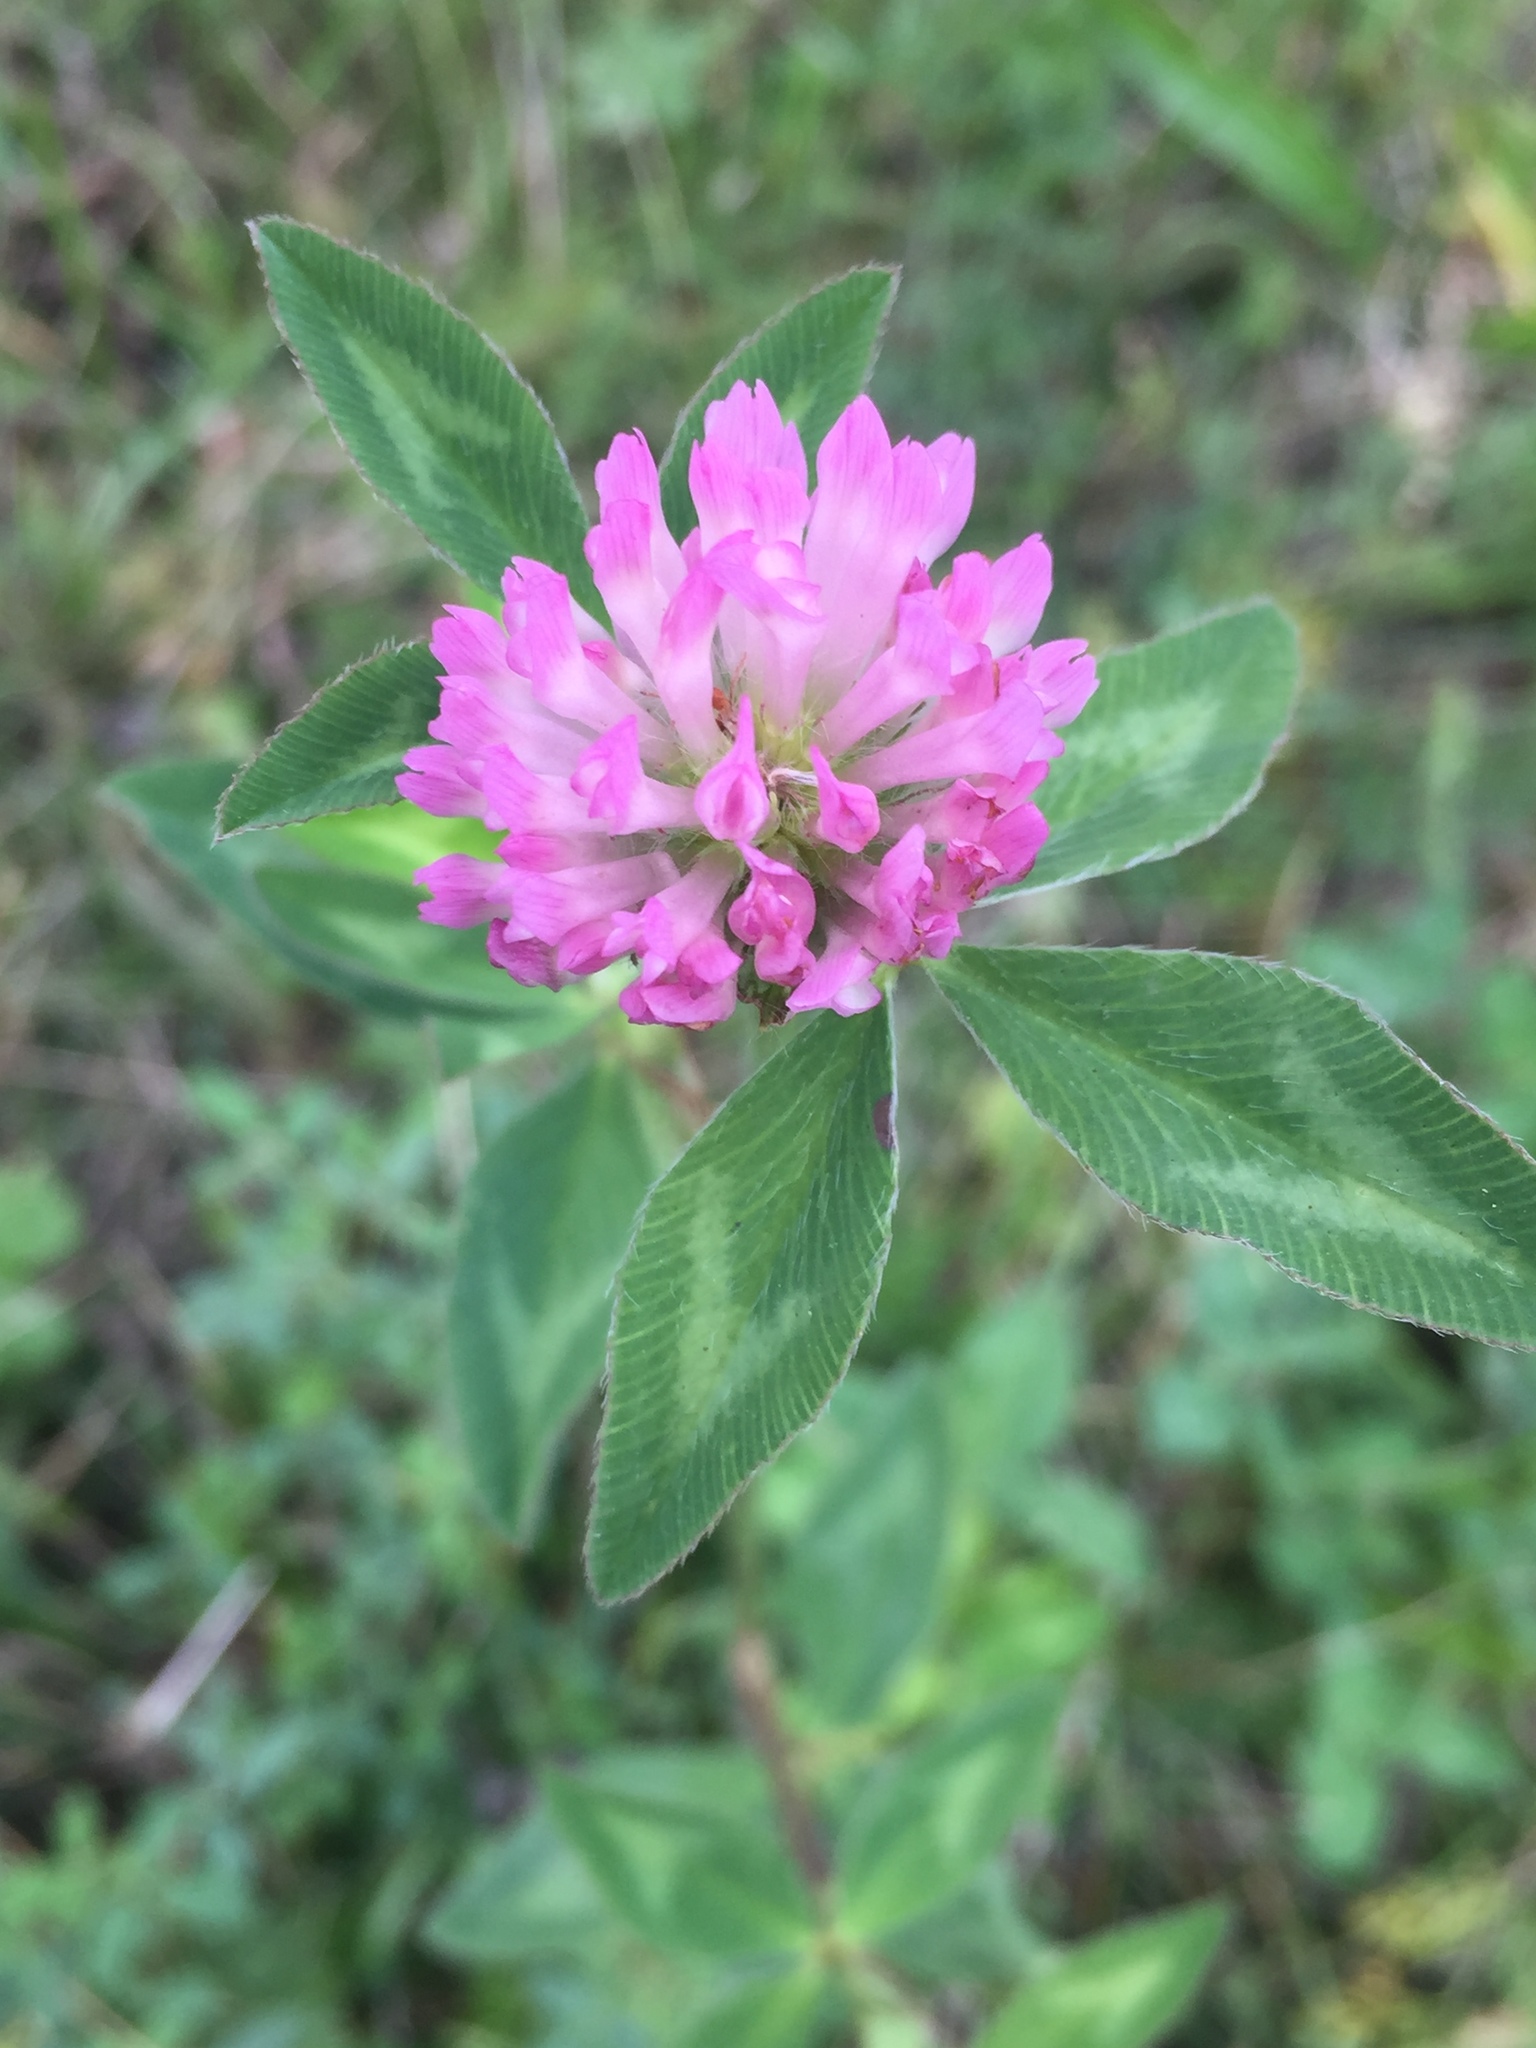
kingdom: Plantae
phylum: Tracheophyta
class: Magnoliopsida
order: Fabales
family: Fabaceae
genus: Trifolium
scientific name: Trifolium pratense
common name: Red clover
